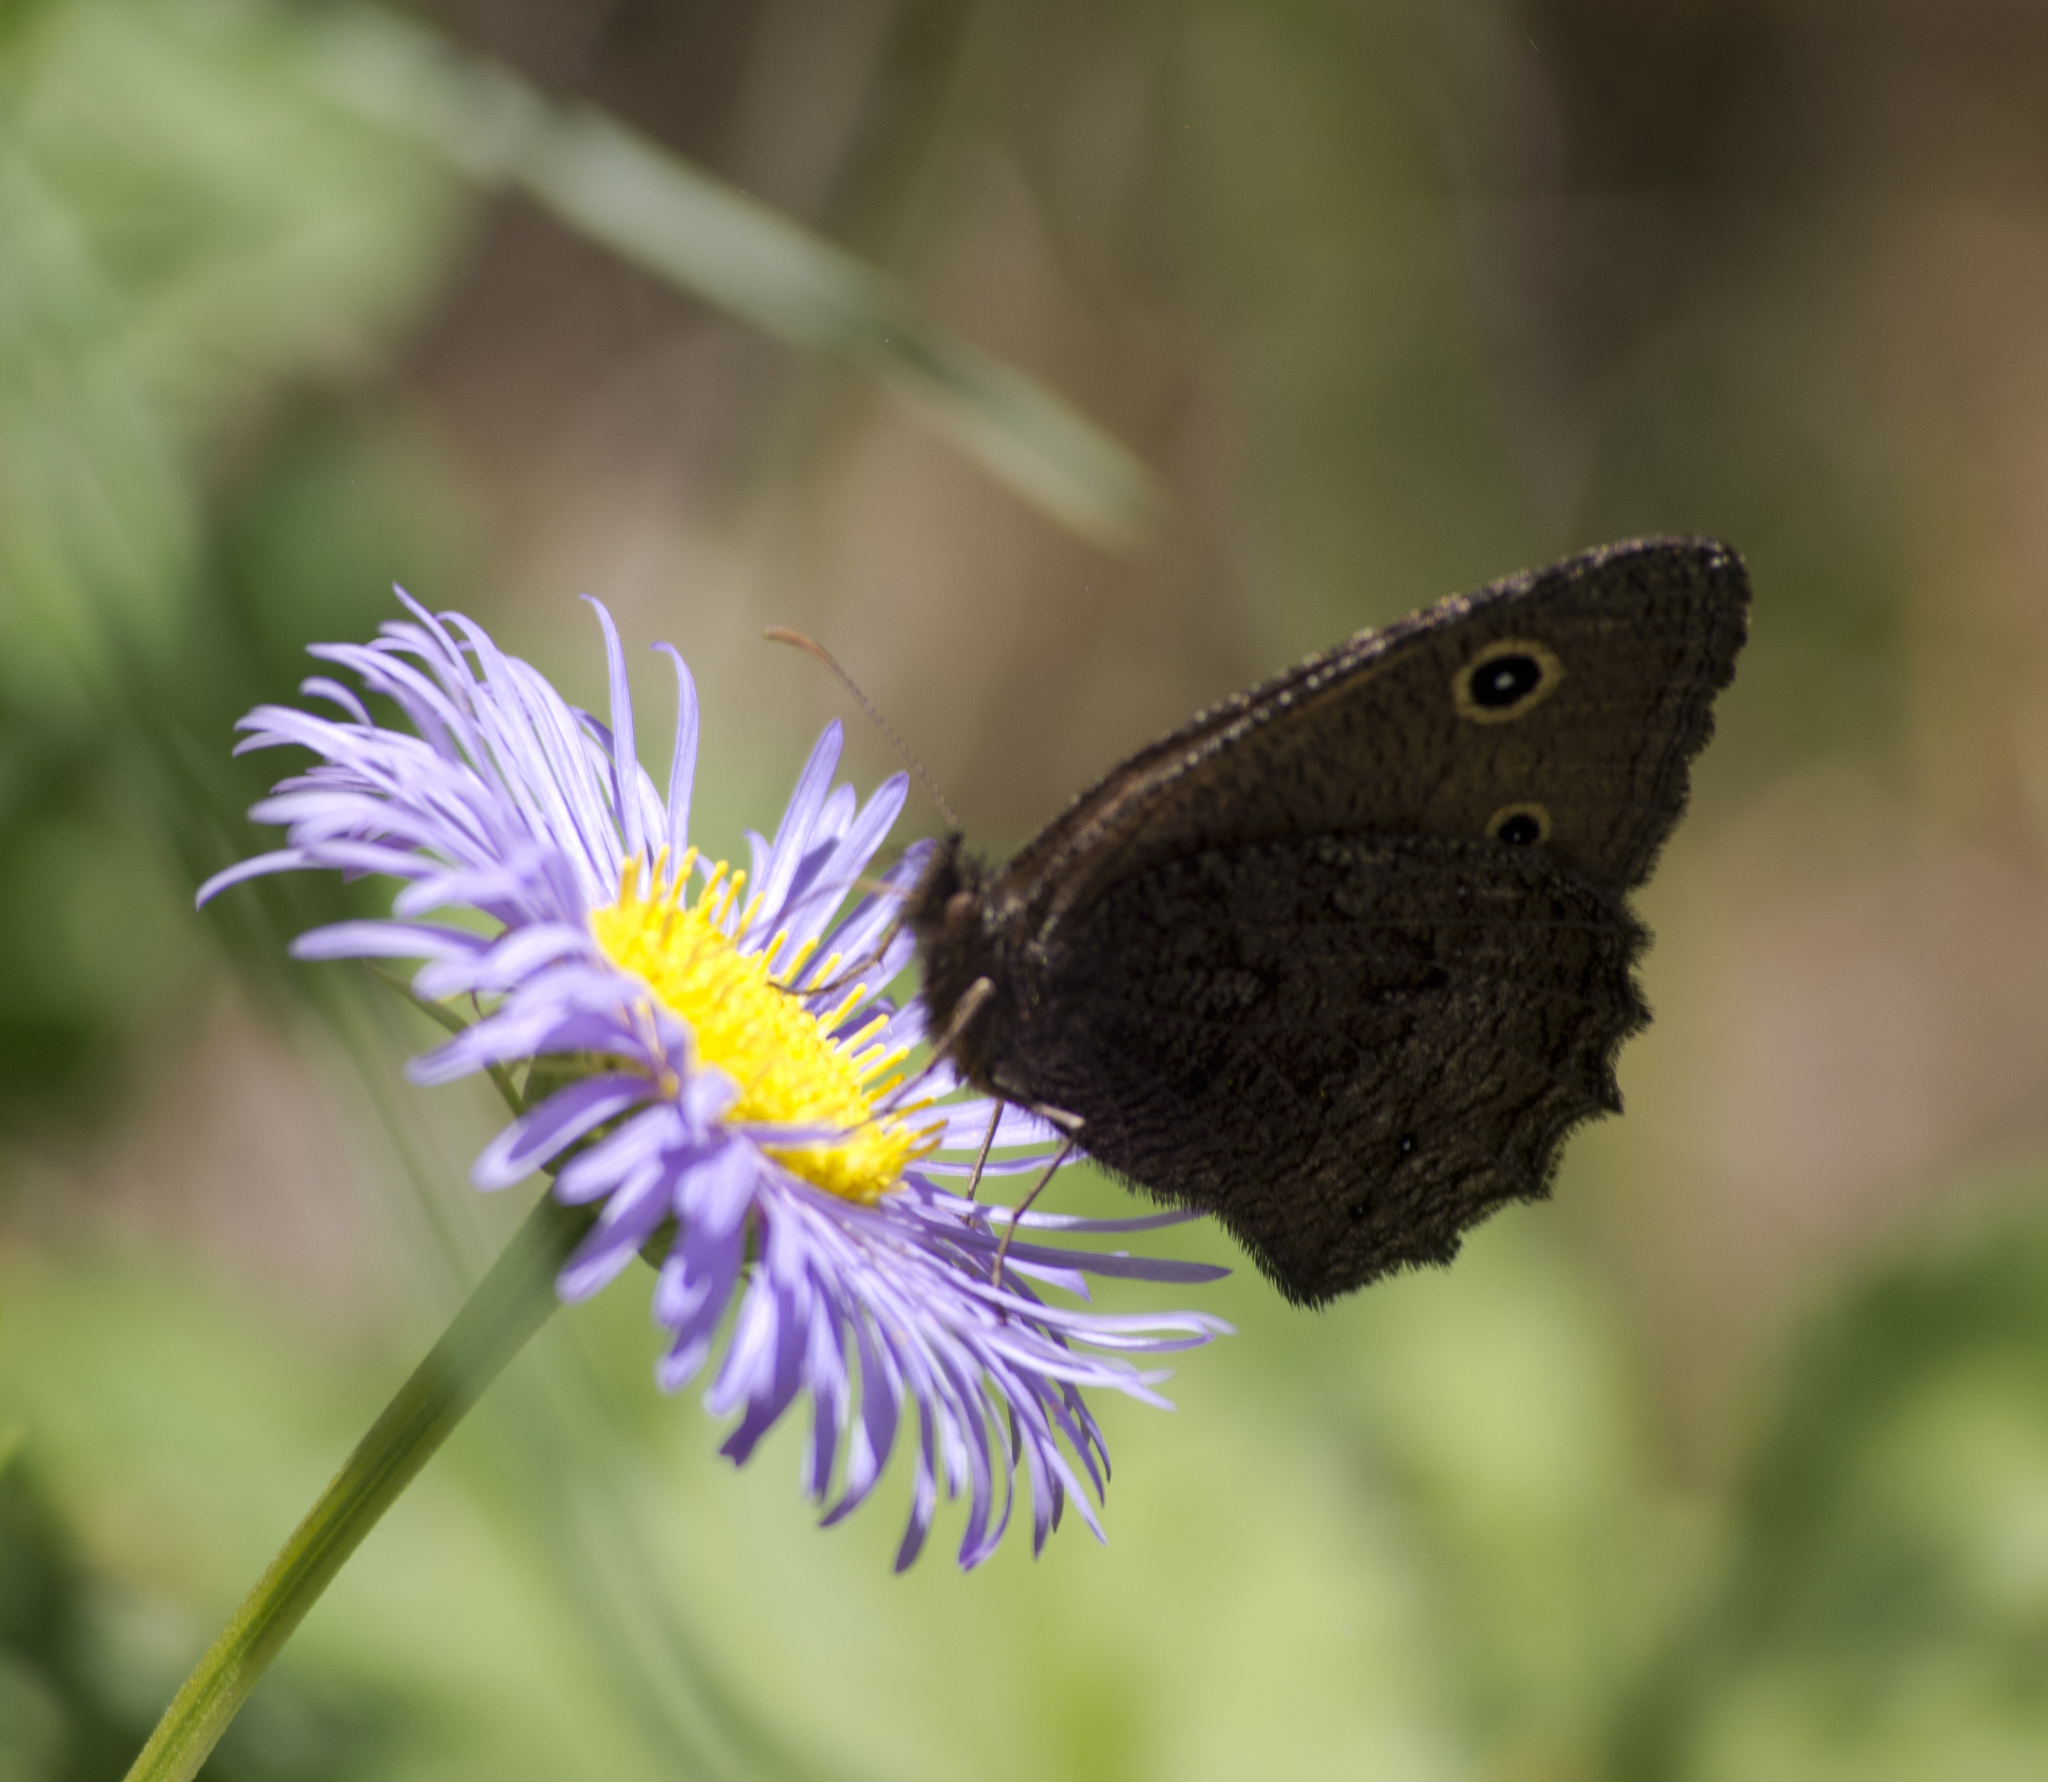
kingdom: Animalia
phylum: Arthropoda
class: Insecta
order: Lepidoptera
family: Nymphalidae
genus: Cercyonis
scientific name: Cercyonis oetus
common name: Small wood-nymph
